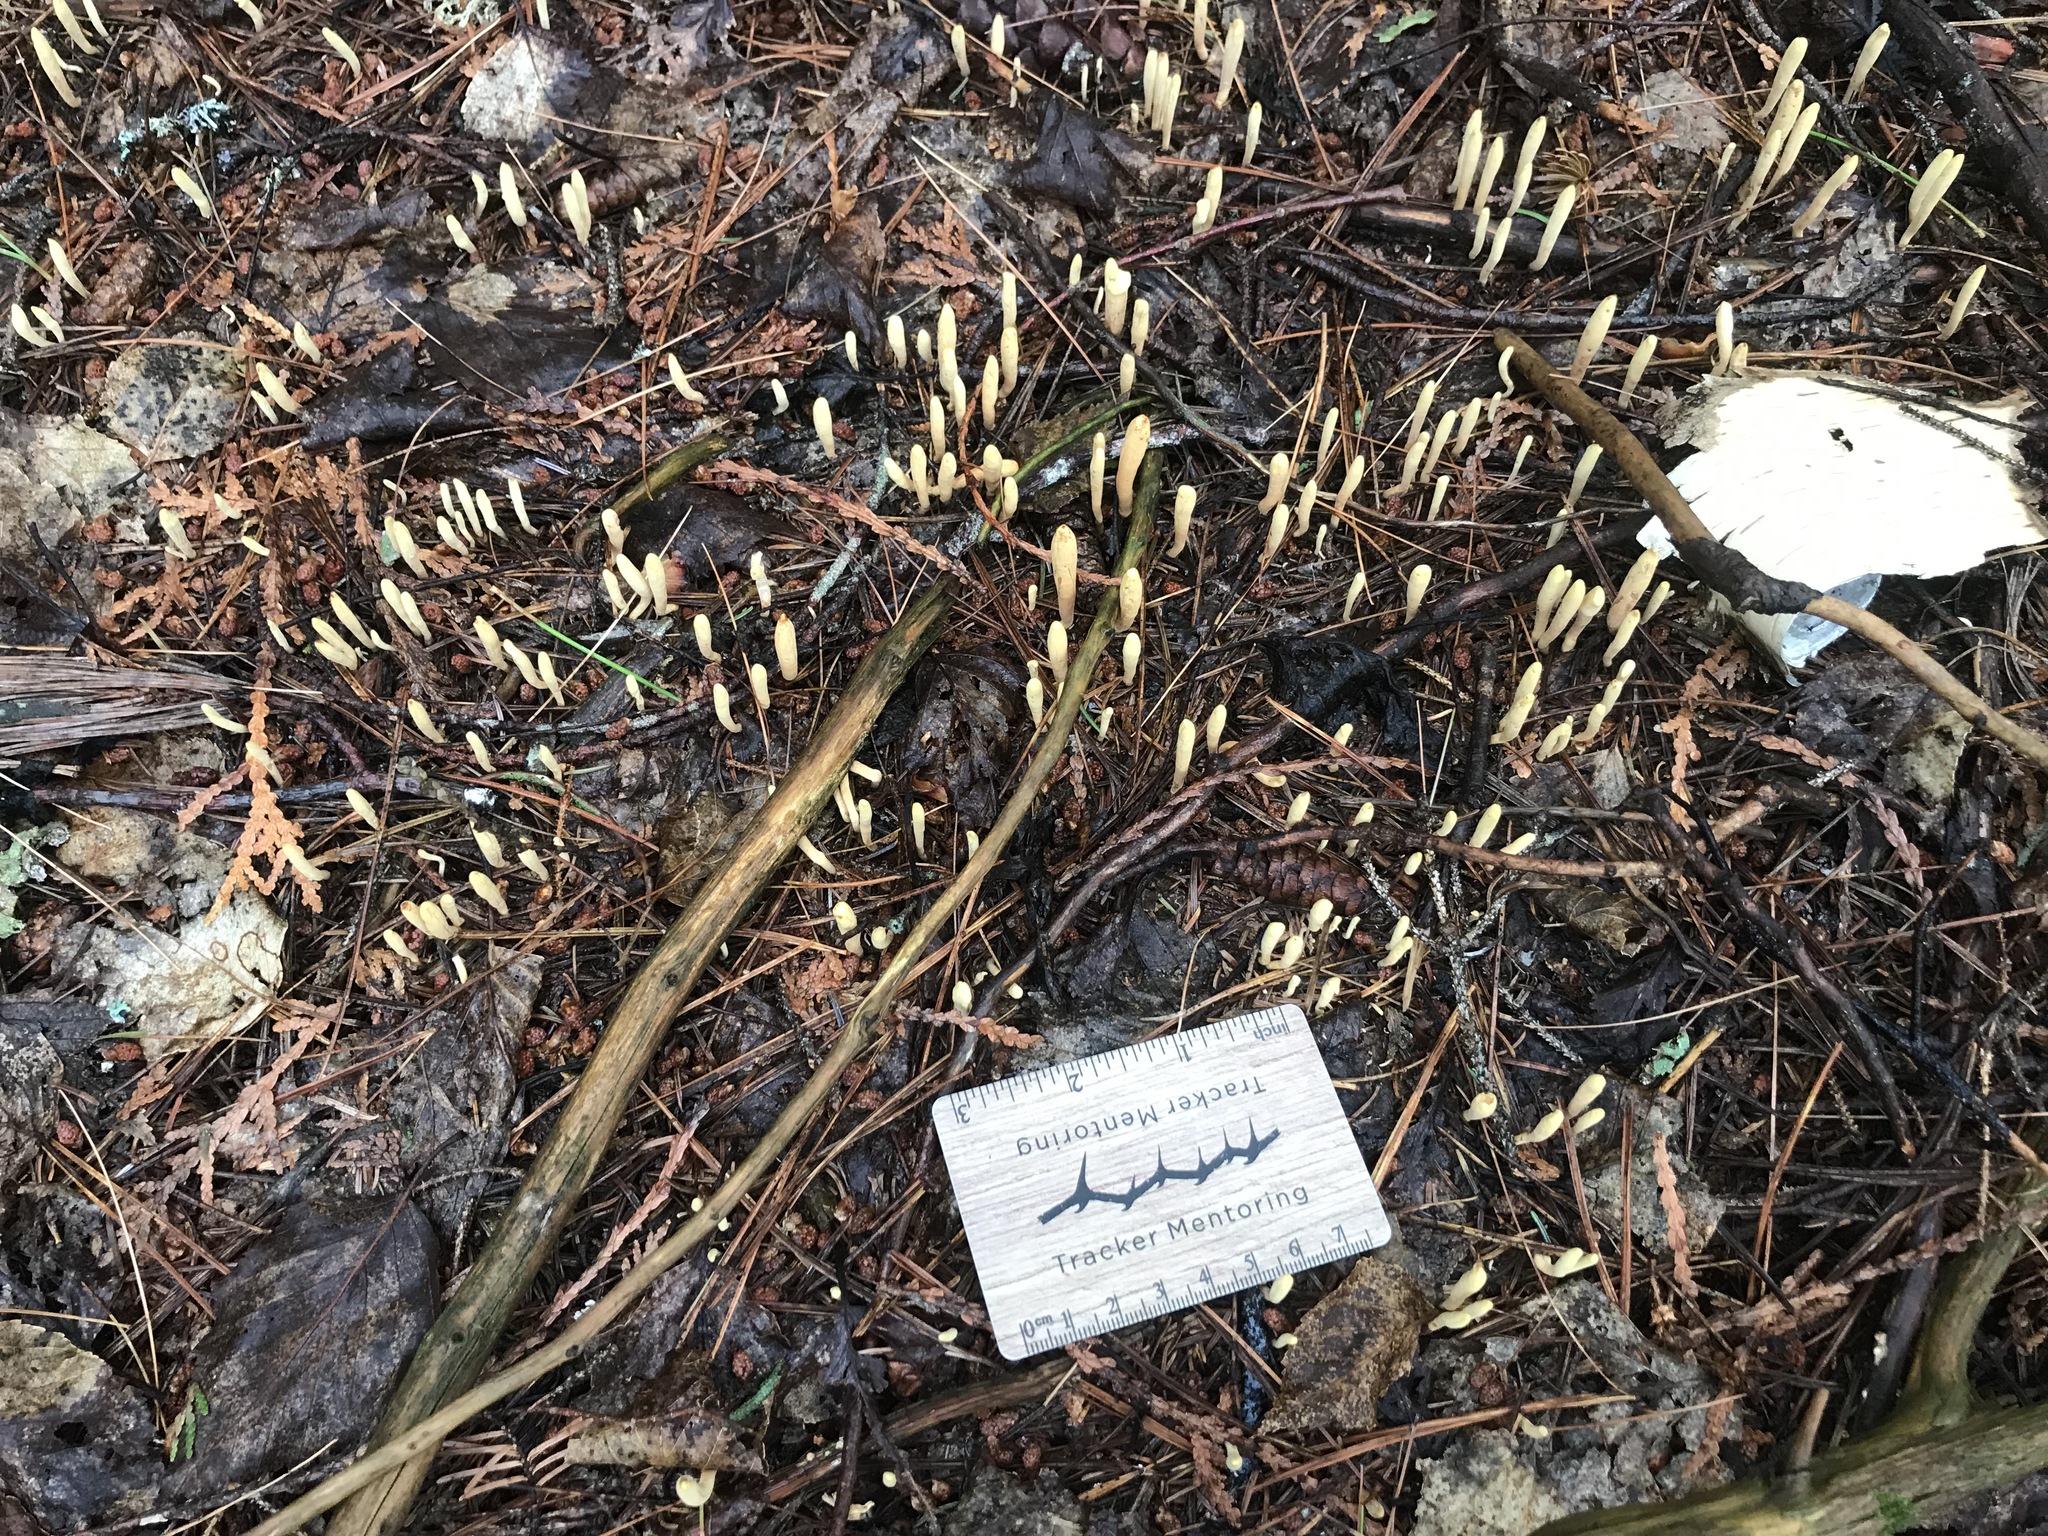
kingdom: Fungi
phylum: Basidiomycota
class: Agaricomycetes
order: Gomphales
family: Clavariadelphaceae
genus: Clavariadelphus
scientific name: Clavariadelphus ligula
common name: Ochre club
